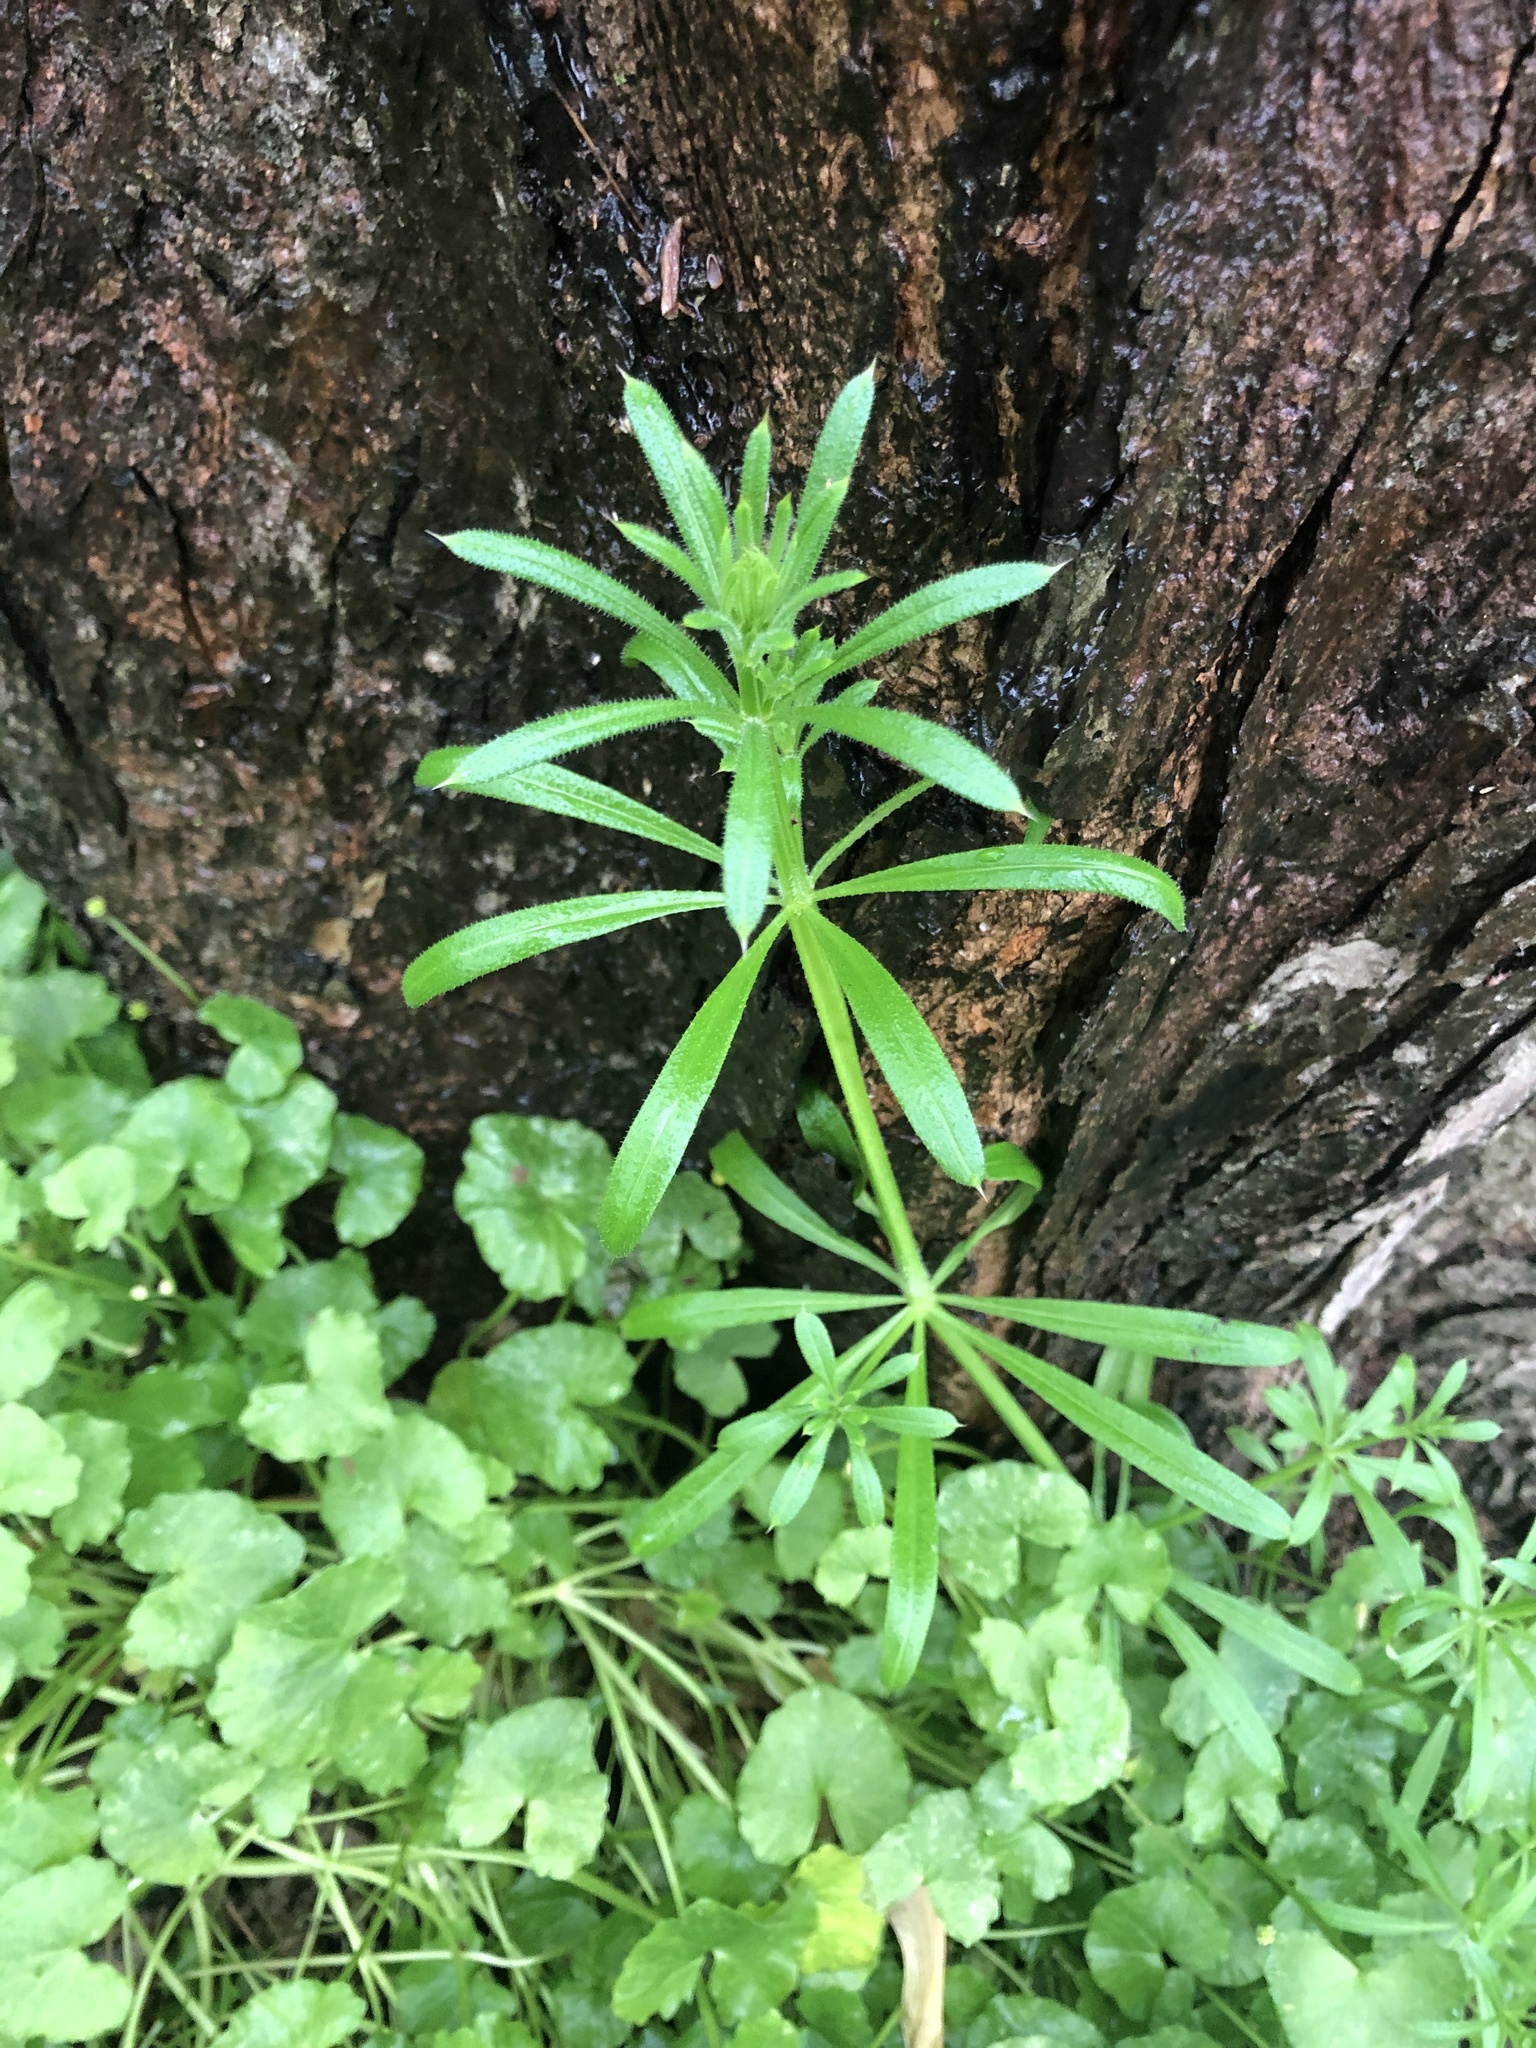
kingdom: Plantae
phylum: Tracheophyta
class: Magnoliopsida
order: Gentianales
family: Rubiaceae
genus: Galium
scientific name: Galium aparine
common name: Cleavers
